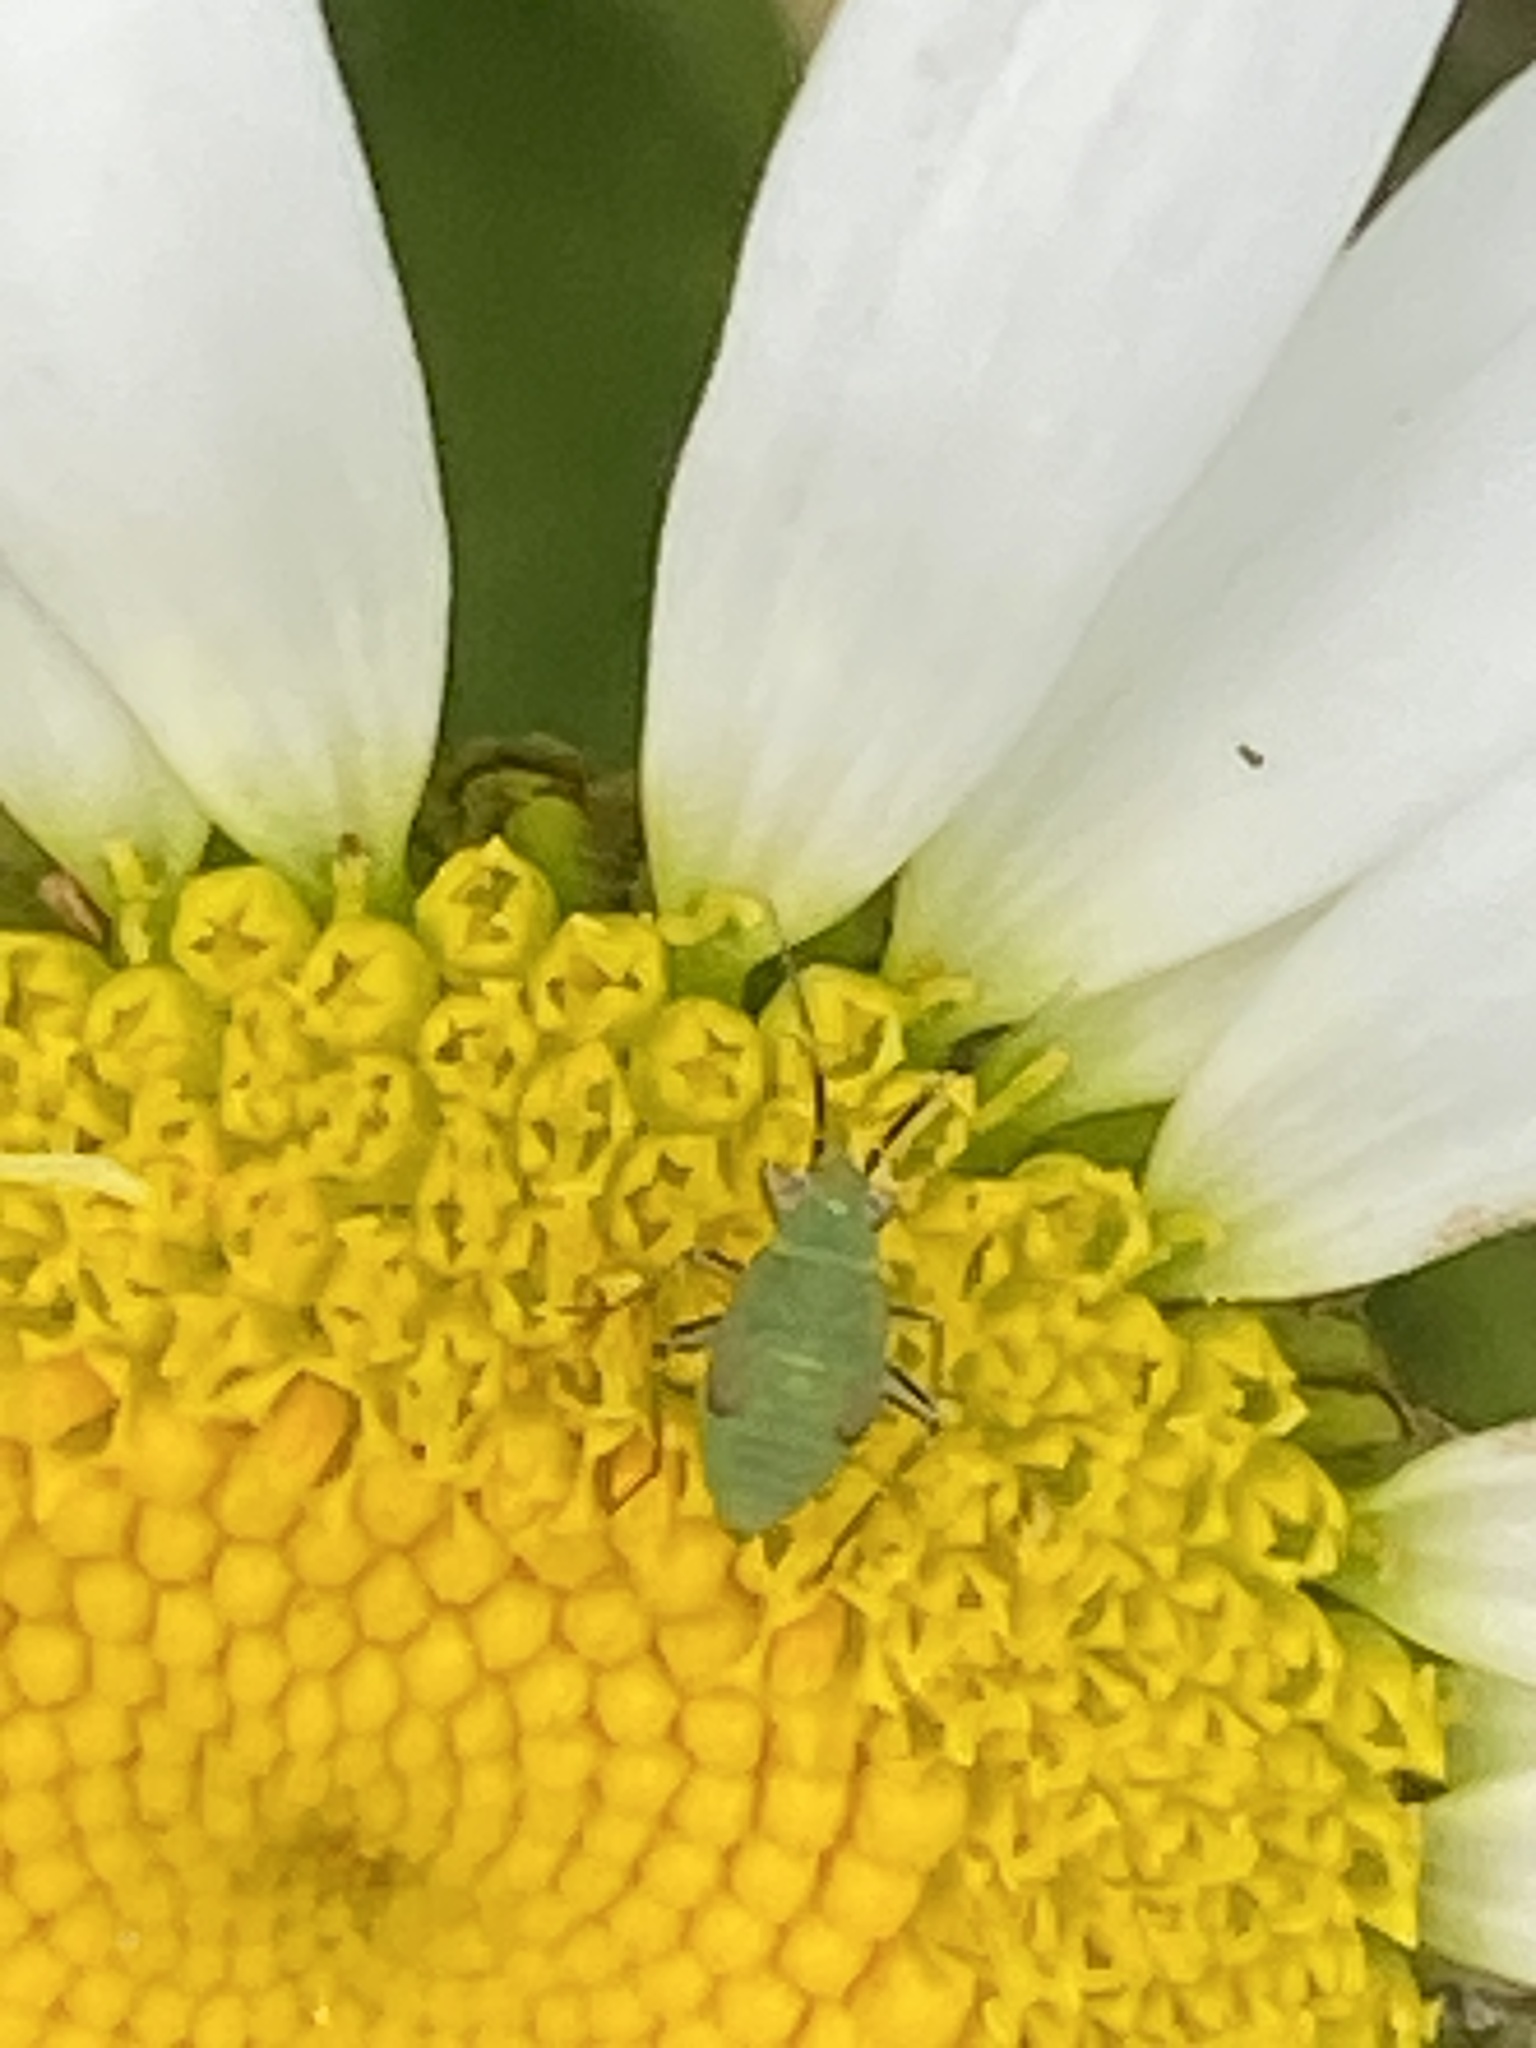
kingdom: Animalia
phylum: Arthropoda
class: Insecta
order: Hemiptera
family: Miridae
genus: Plagiognathus
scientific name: Plagiognathus arbustorum
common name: Plant bug
